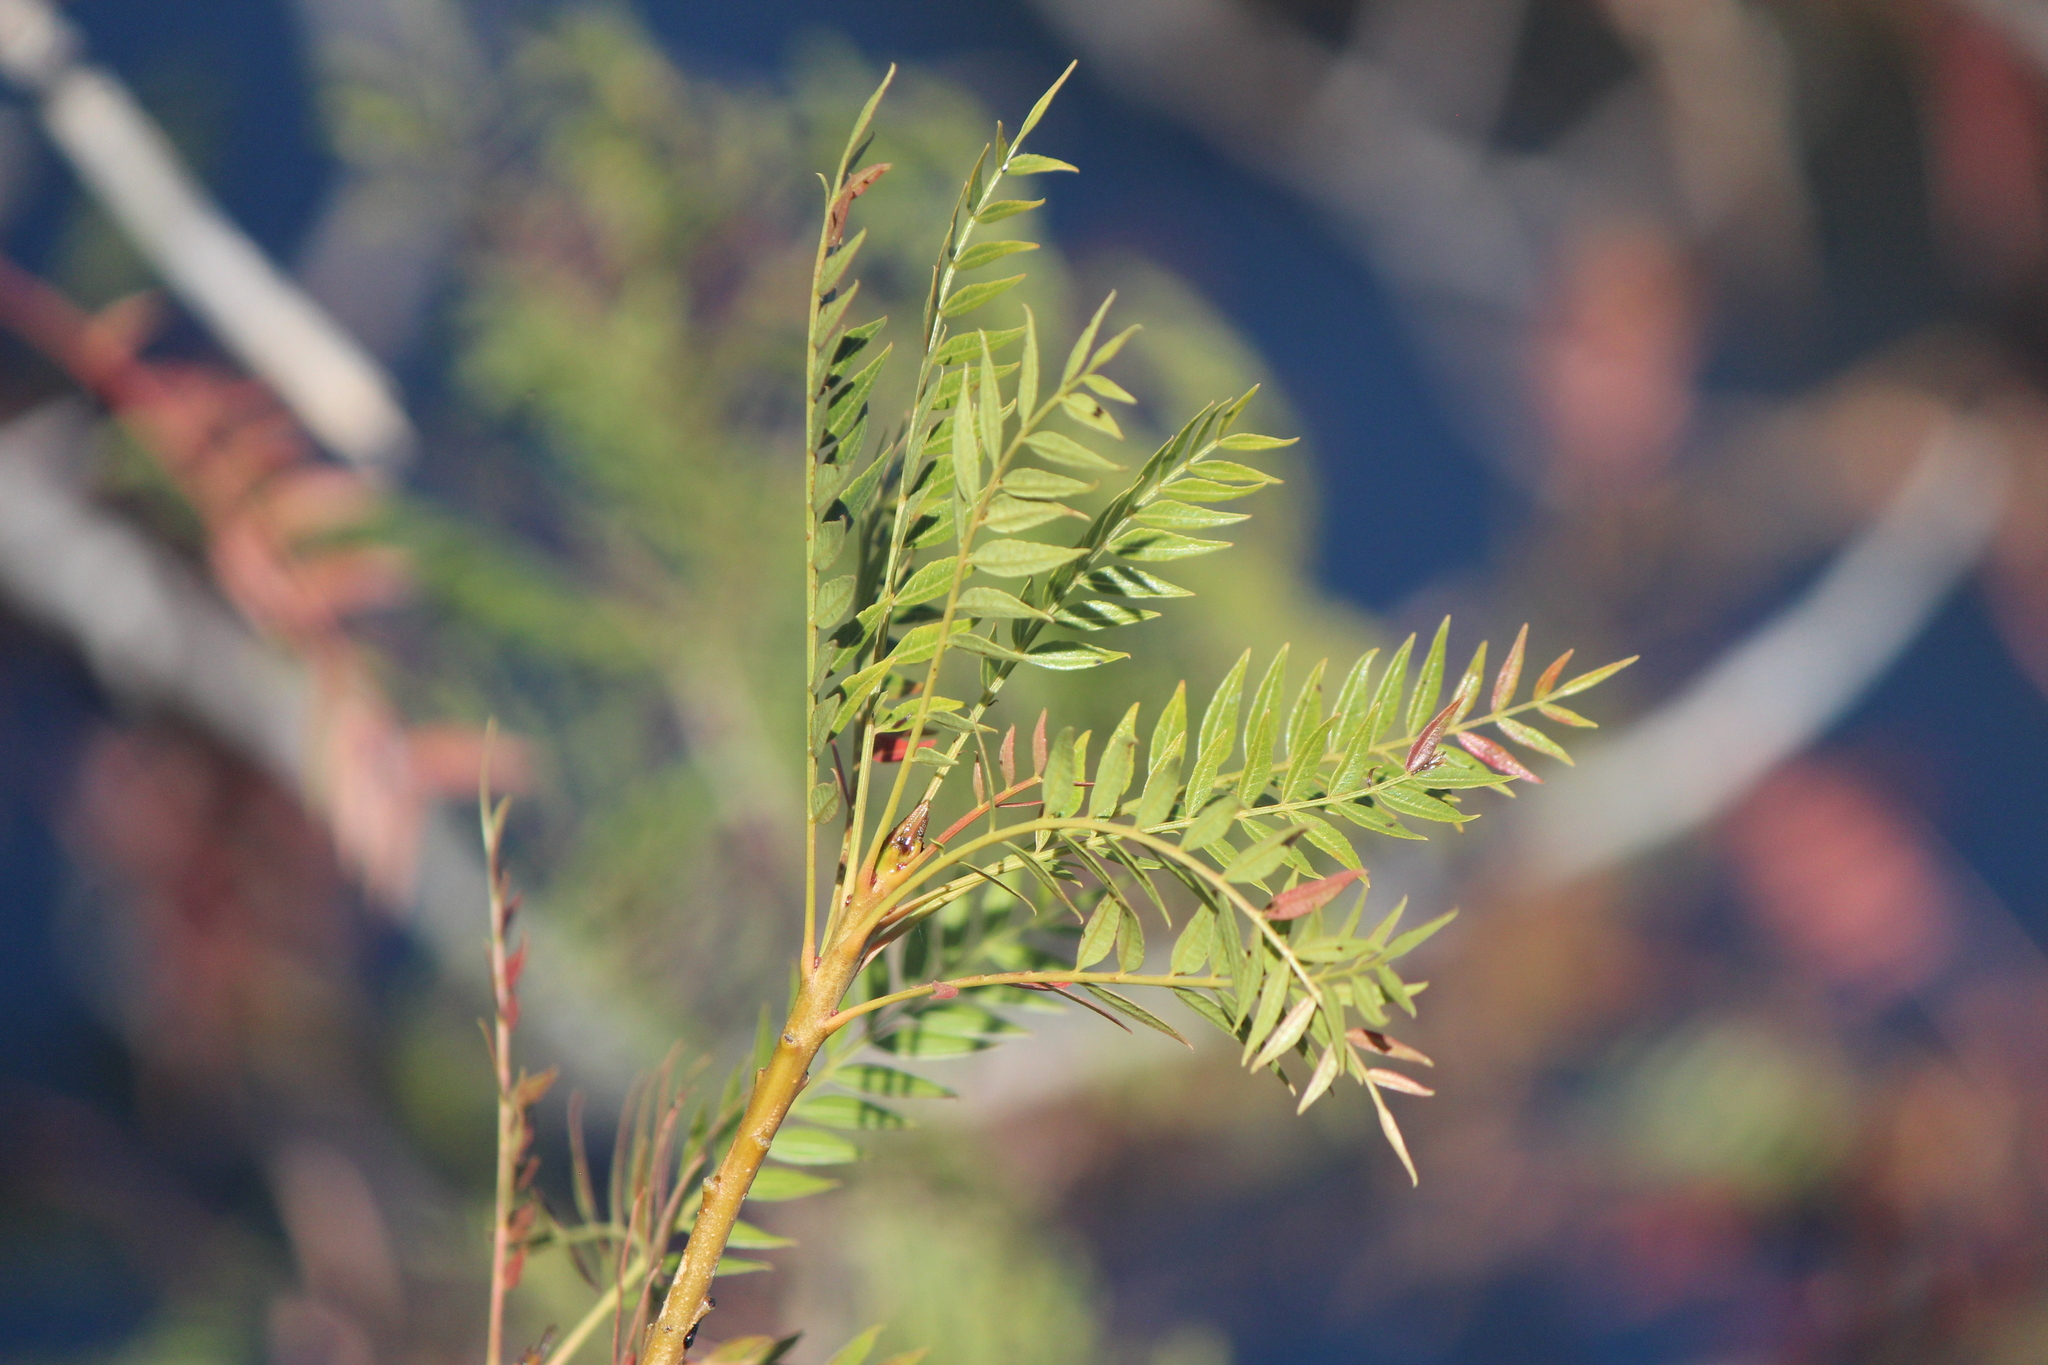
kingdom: Plantae
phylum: Tracheophyta
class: Magnoliopsida
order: Sapindales
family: Anacardiaceae
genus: Pseudosmodingium
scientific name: Pseudosmodingium andrieuxii
